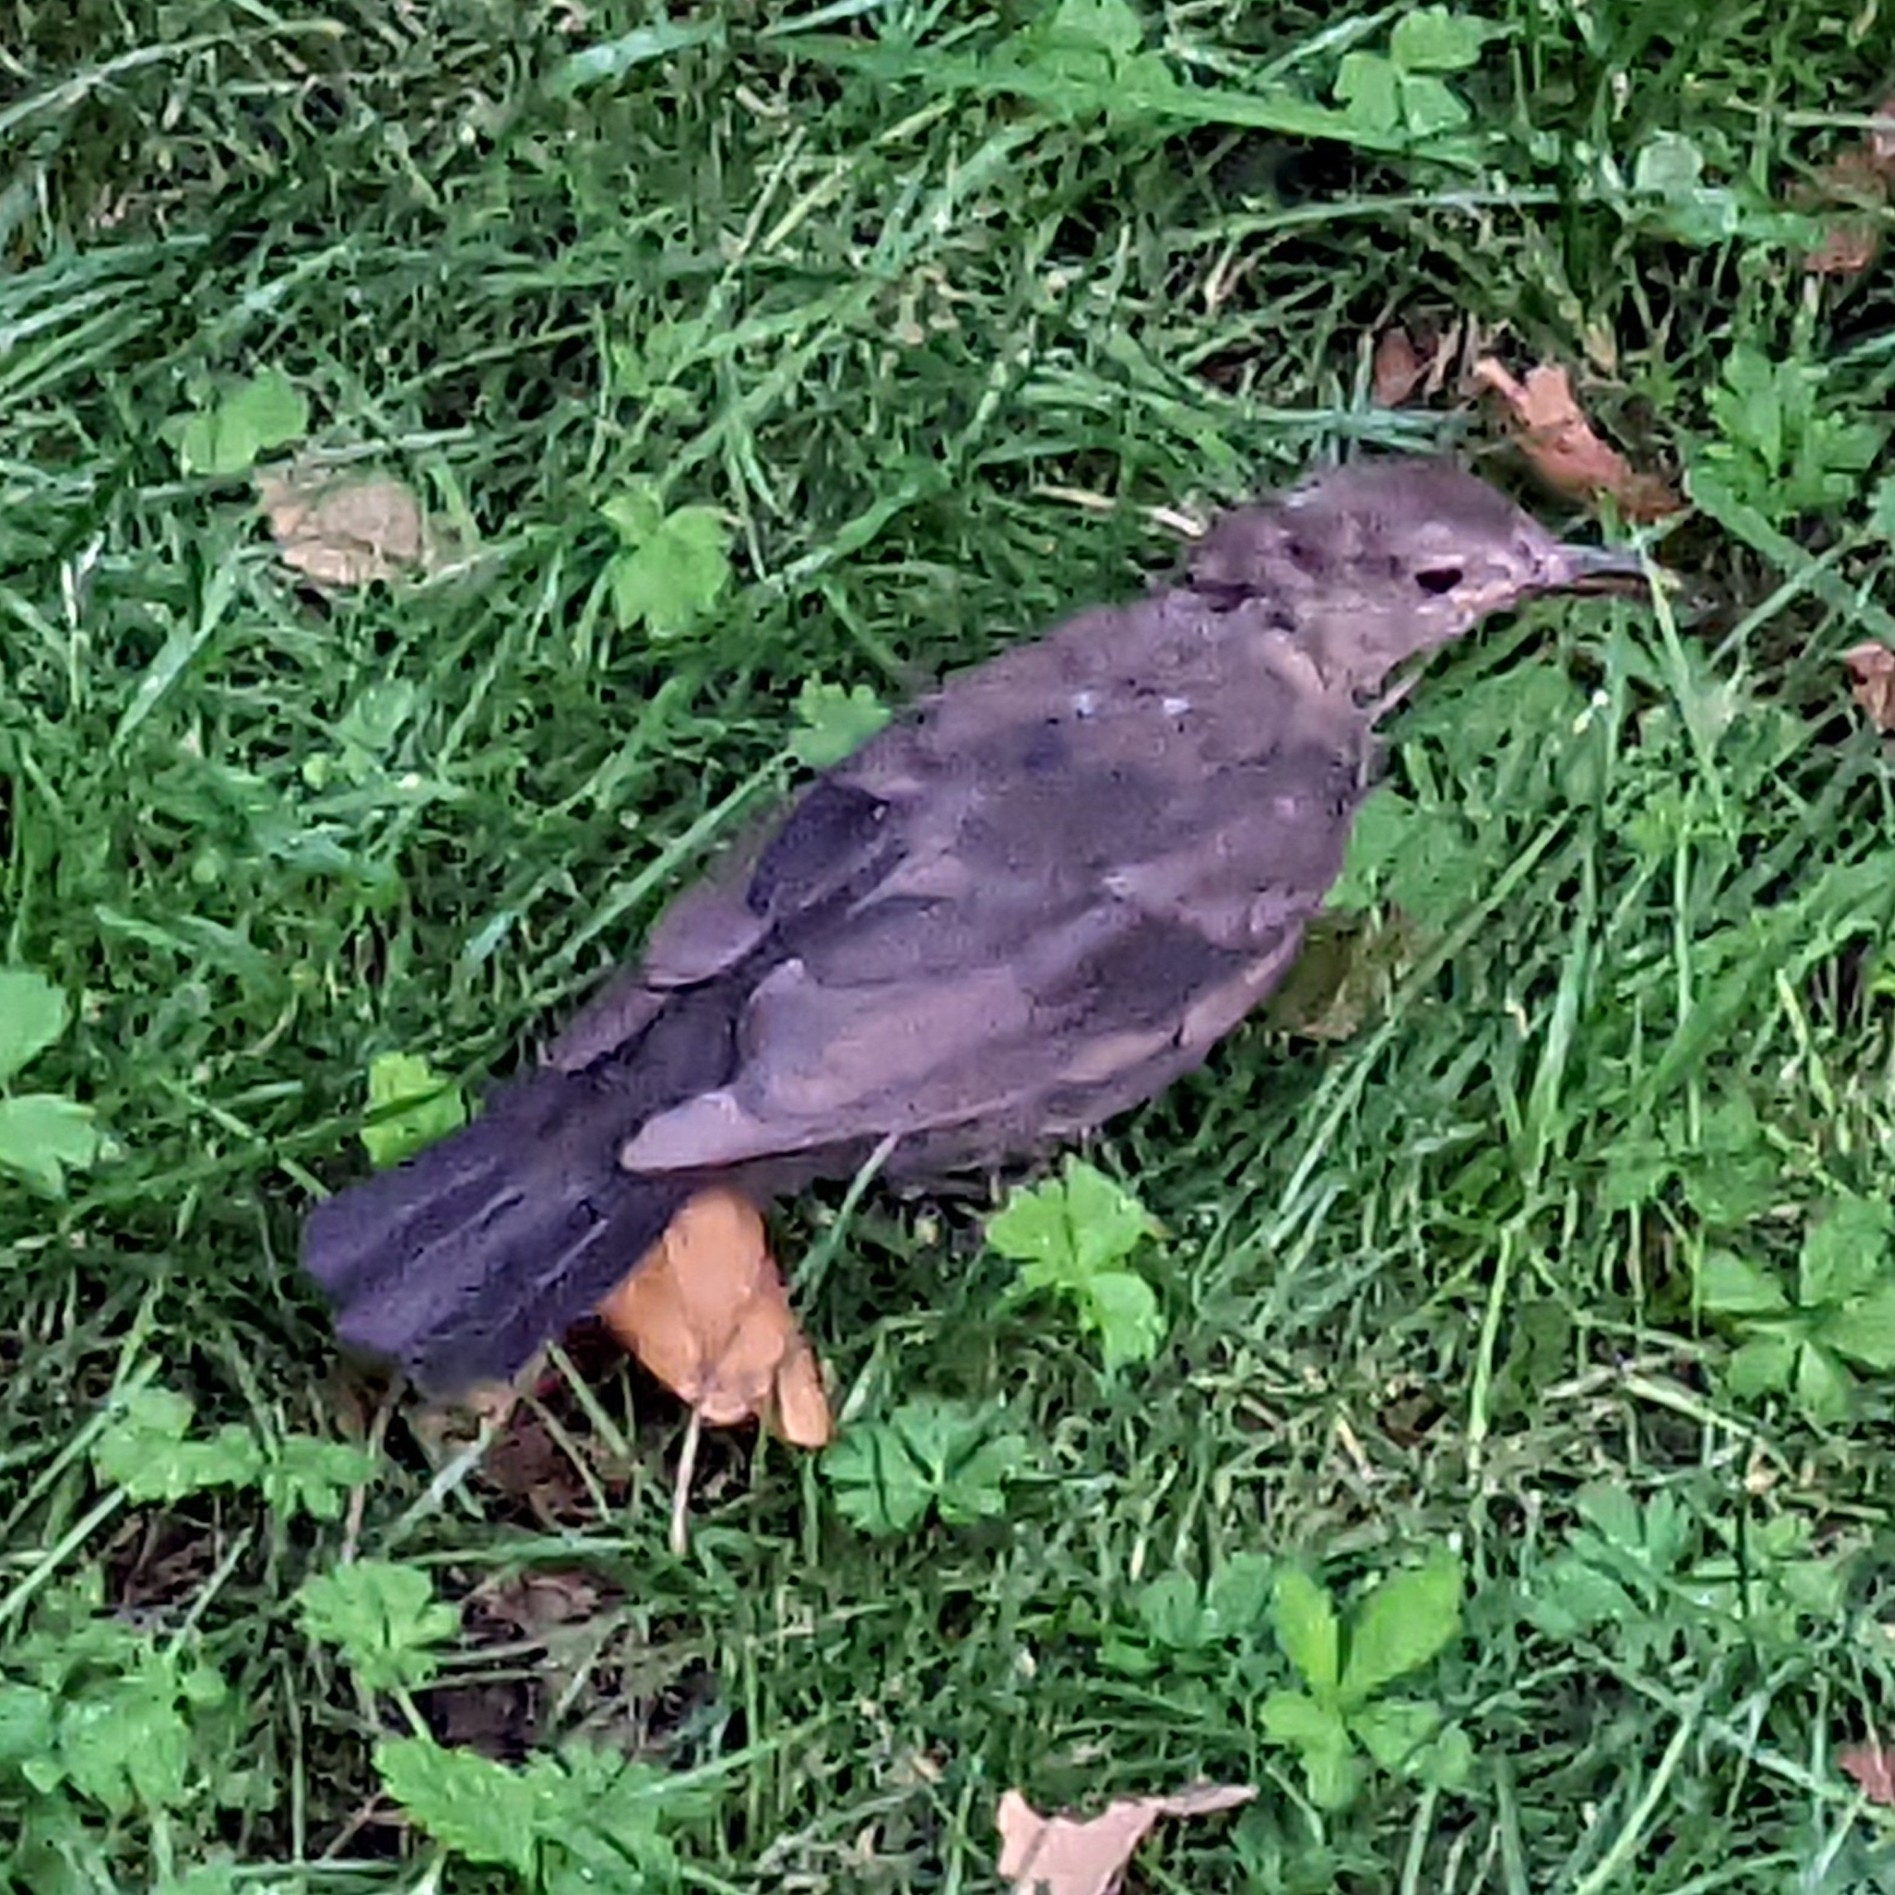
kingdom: Animalia
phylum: Chordata
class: Aves
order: Passeriformes
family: Turdidae
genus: Turdus
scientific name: Turdus merula
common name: Common blackbird
